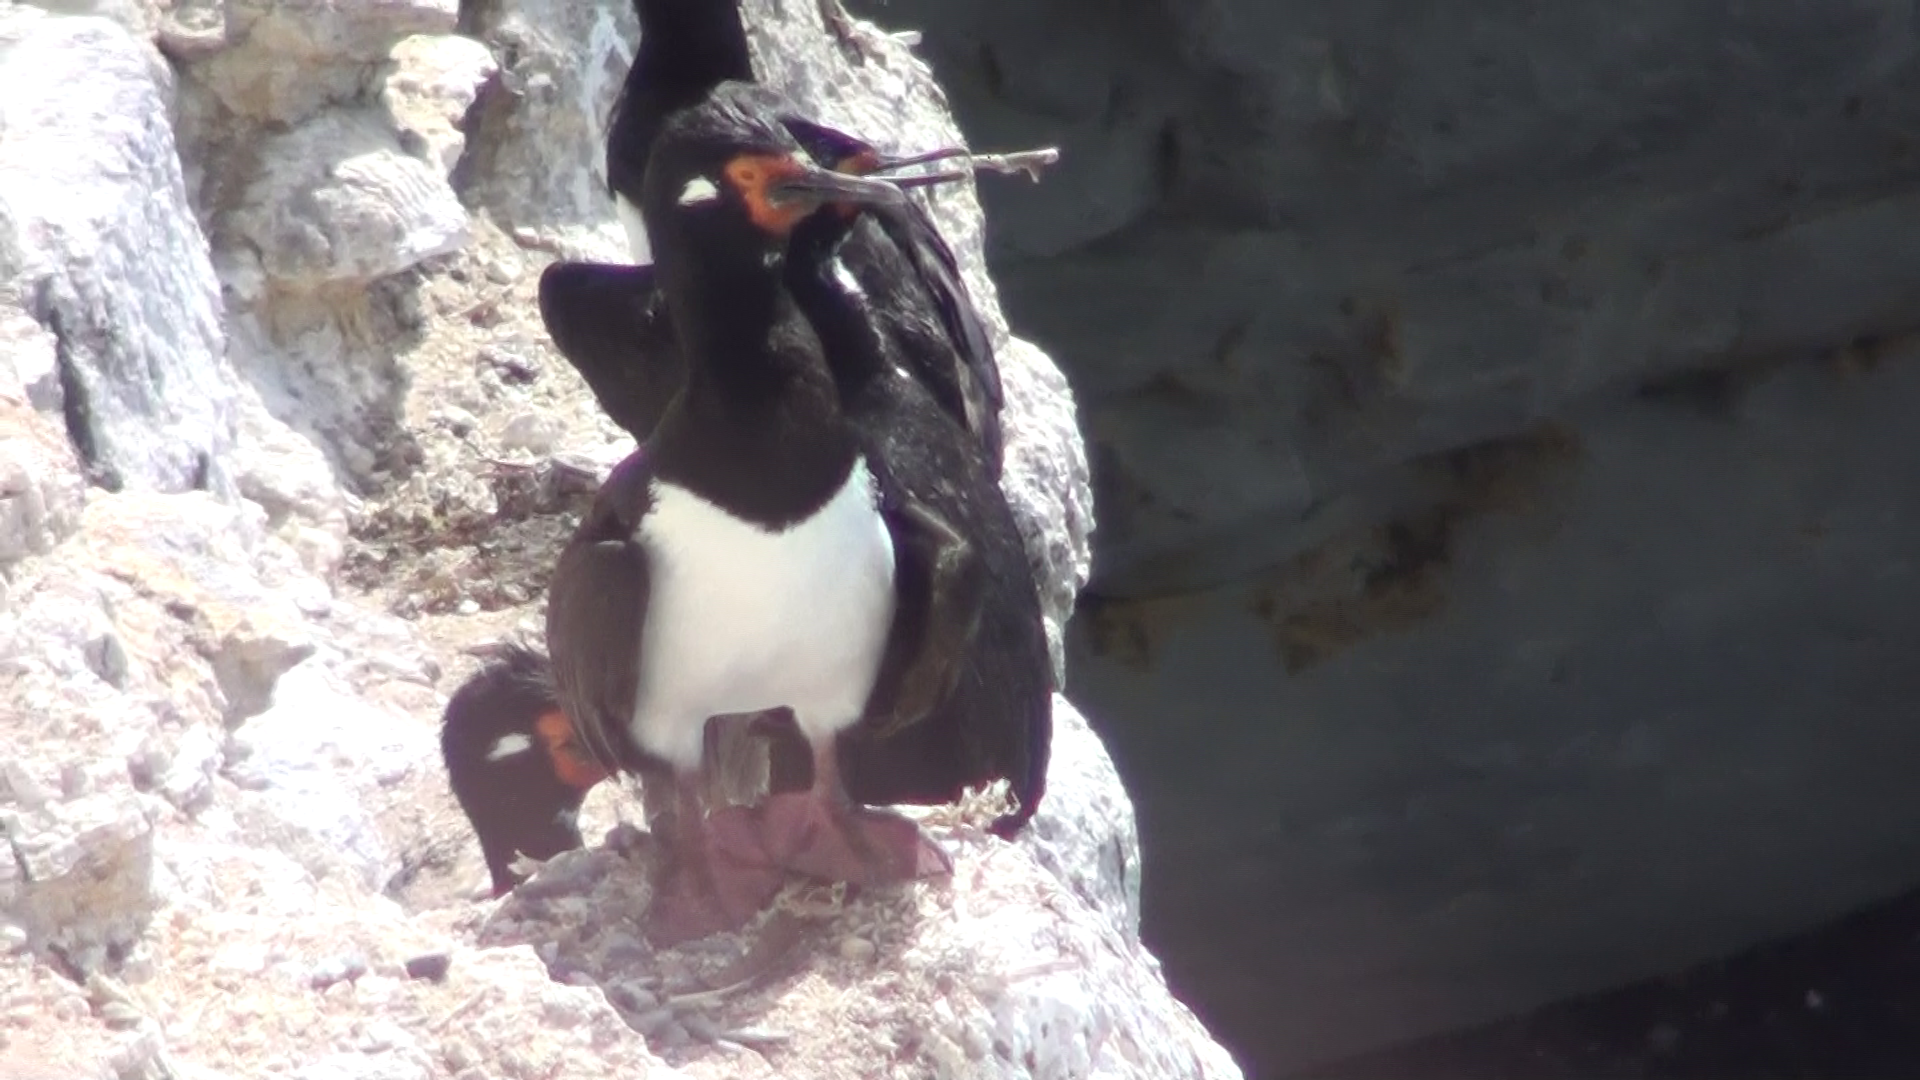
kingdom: Animalia
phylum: Chordata
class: Aves
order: Suliformes
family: Phalacrocoracidae
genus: Phalacrocorax
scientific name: Phalacrocorax magellanicus
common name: Rock shag
